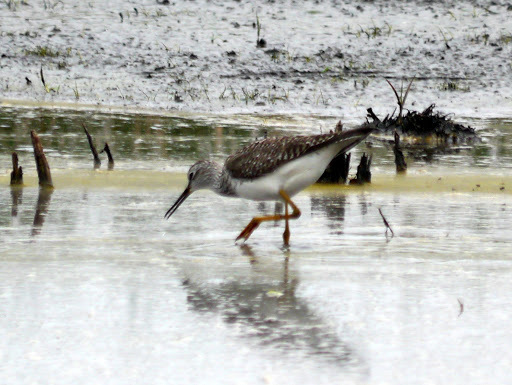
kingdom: Animalia
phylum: Chordata
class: Aves
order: Charadriiformes
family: Scolopacidae
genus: Tringa
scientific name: Tringa flavipes
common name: Lesser yellowlegs
